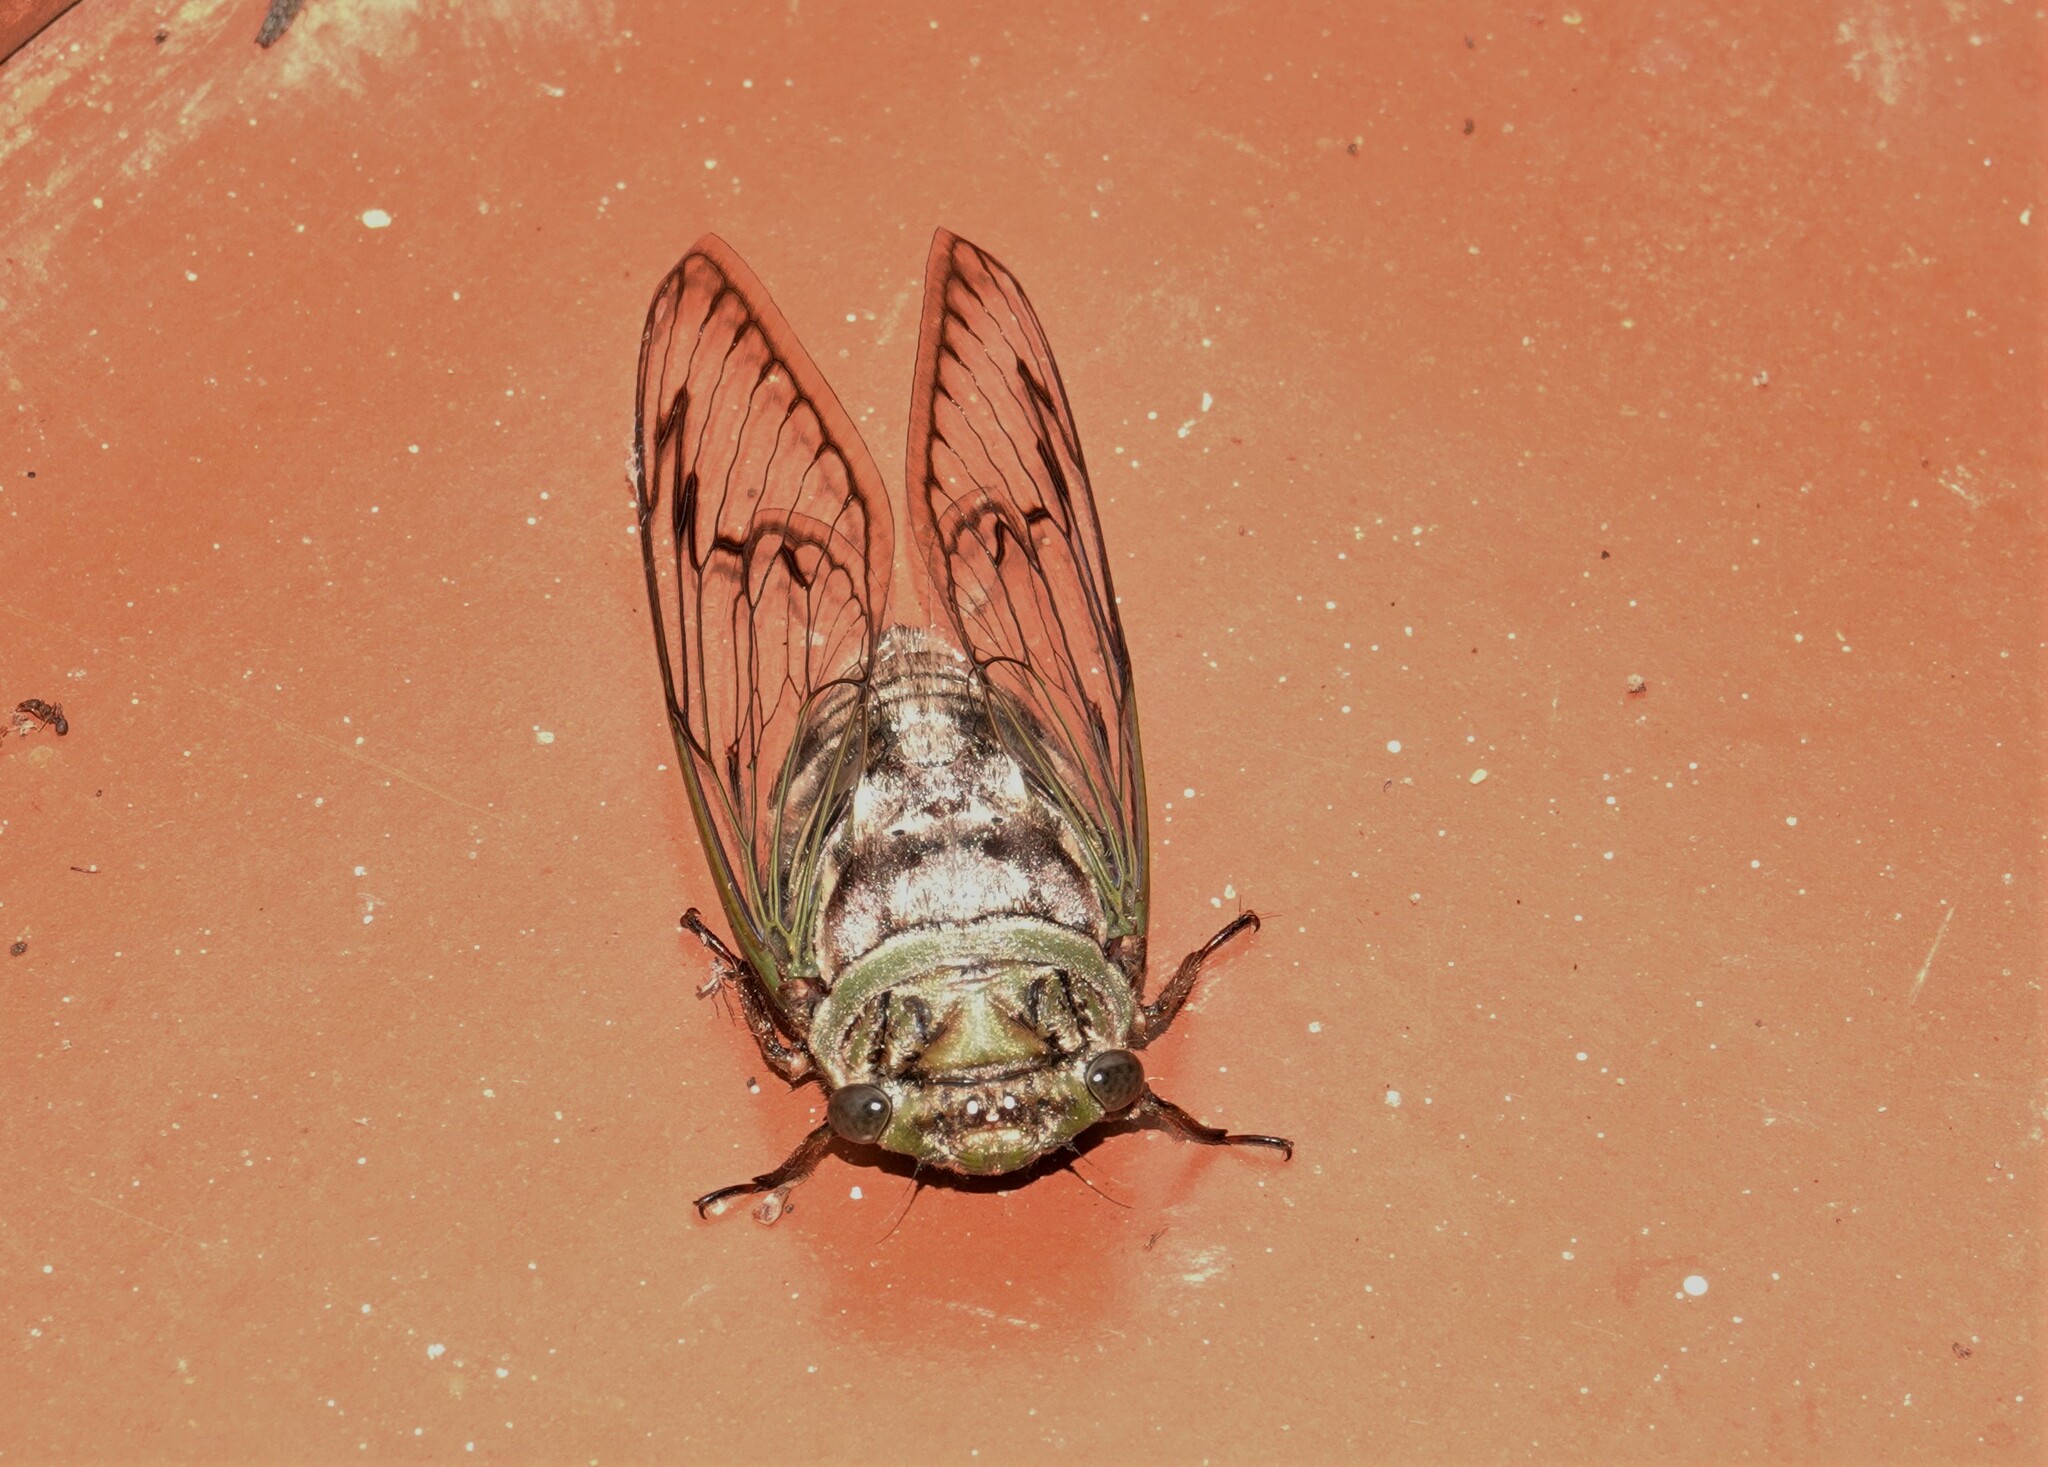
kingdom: Animalia
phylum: Arthropoda
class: Insecta
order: Hemiptera
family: Cicadidae
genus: Fidicina
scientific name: Fidicina torresi
